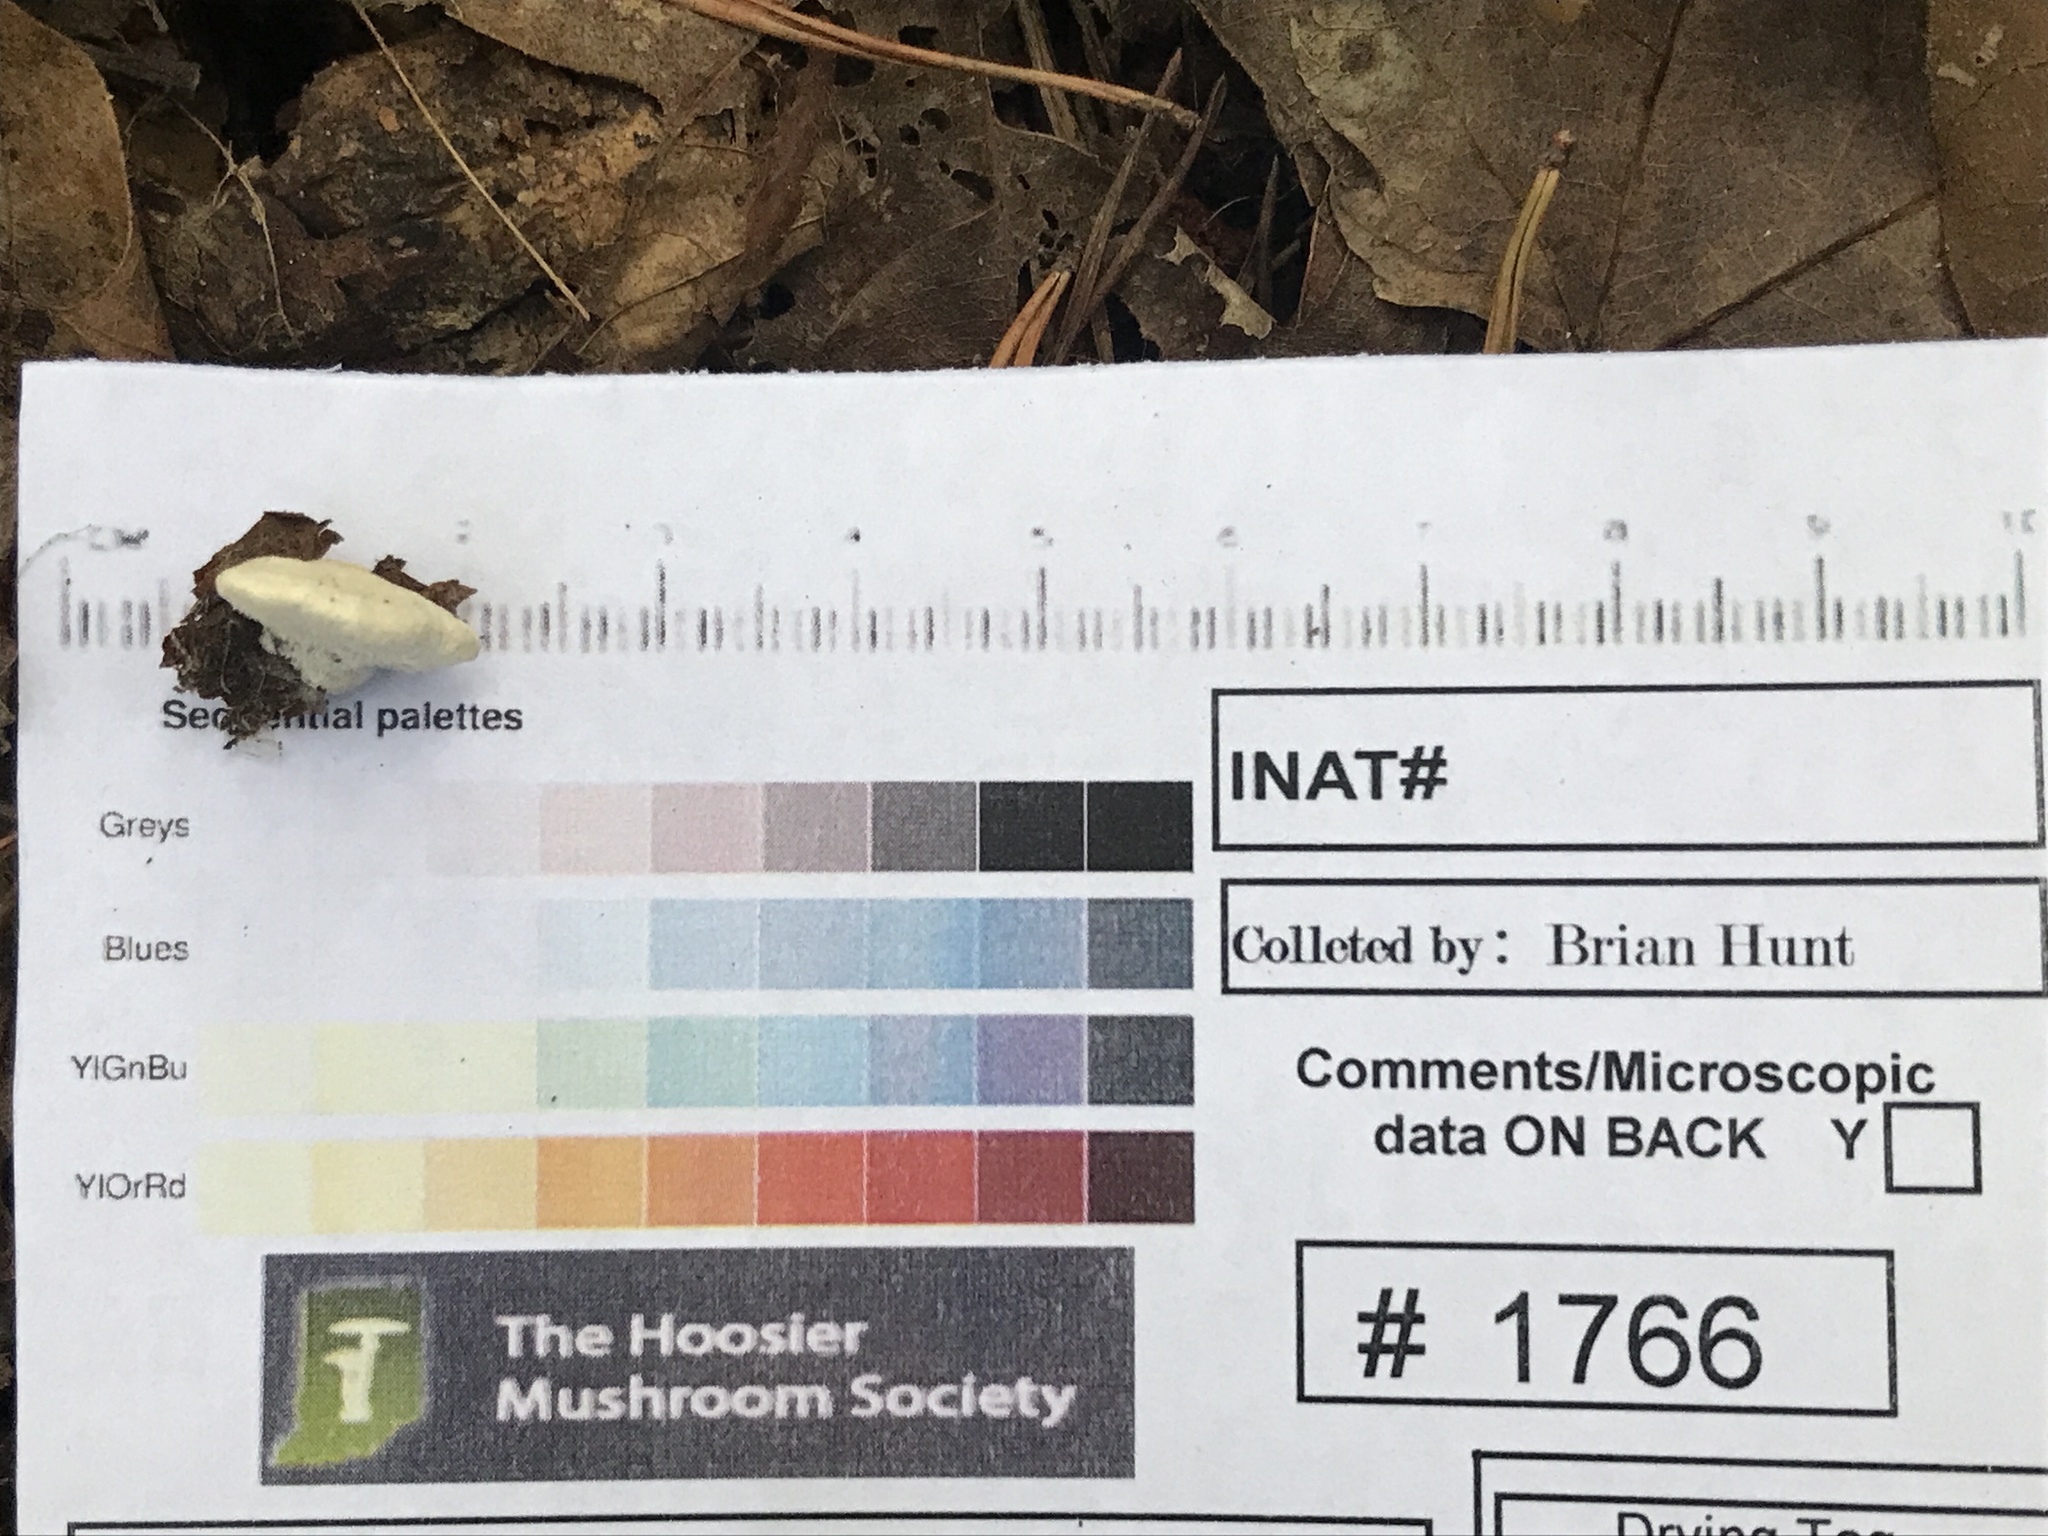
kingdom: Fungi
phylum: Basidiomycota
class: Agaricomycetes
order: Polyporales
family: Polyporaceae
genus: Cyanosporus
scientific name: Cyanosporus populi
